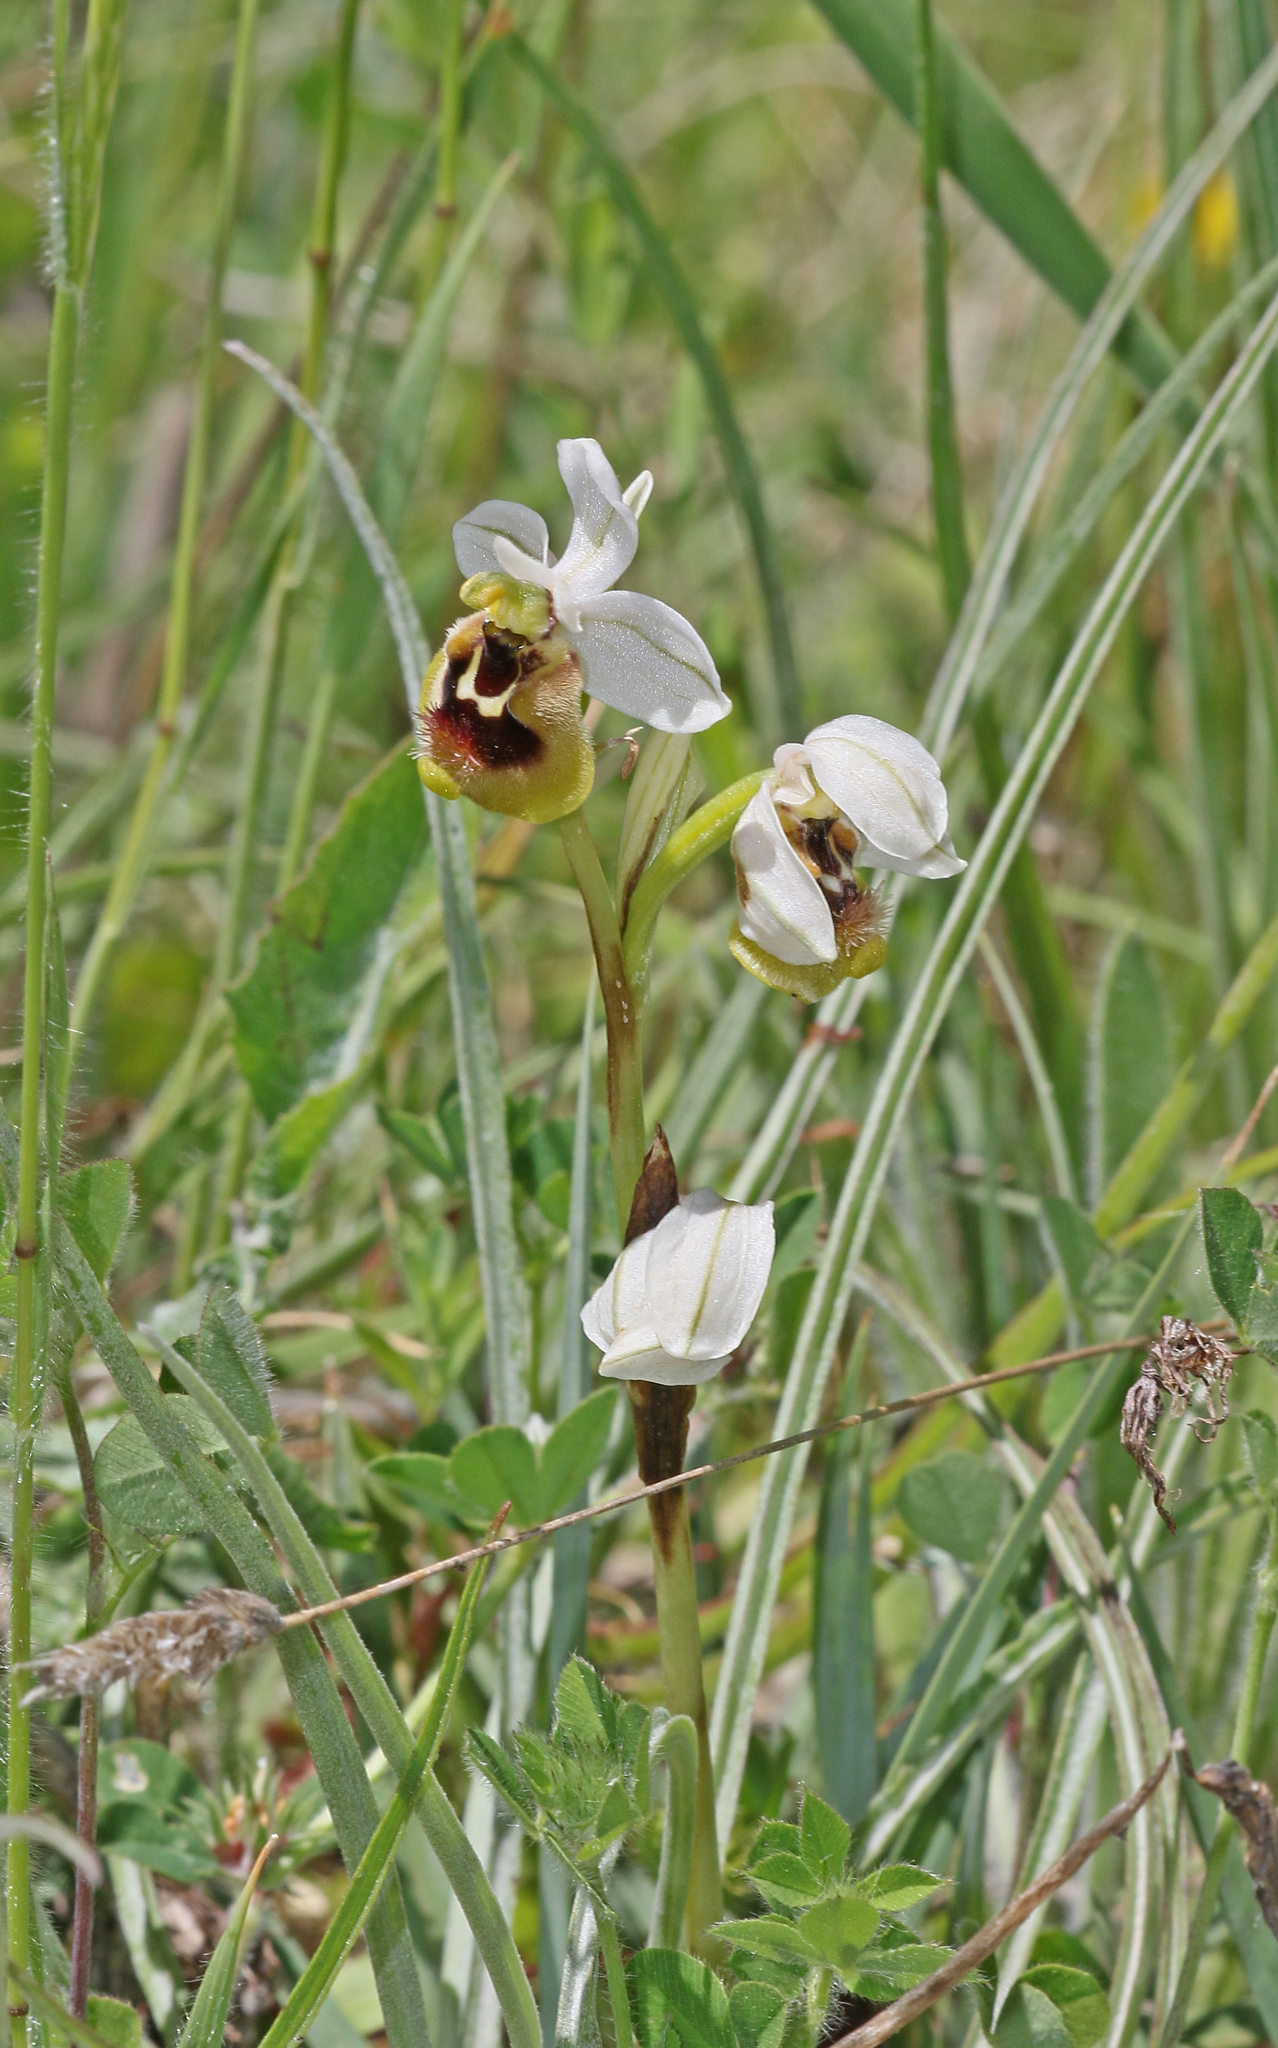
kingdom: Plantae
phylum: Tracheophyta
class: Liliopsida
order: Asparagales
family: Orchidaceae
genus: Ophrys
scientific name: Ophrys tenthredinifera
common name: Sawfly orchid
